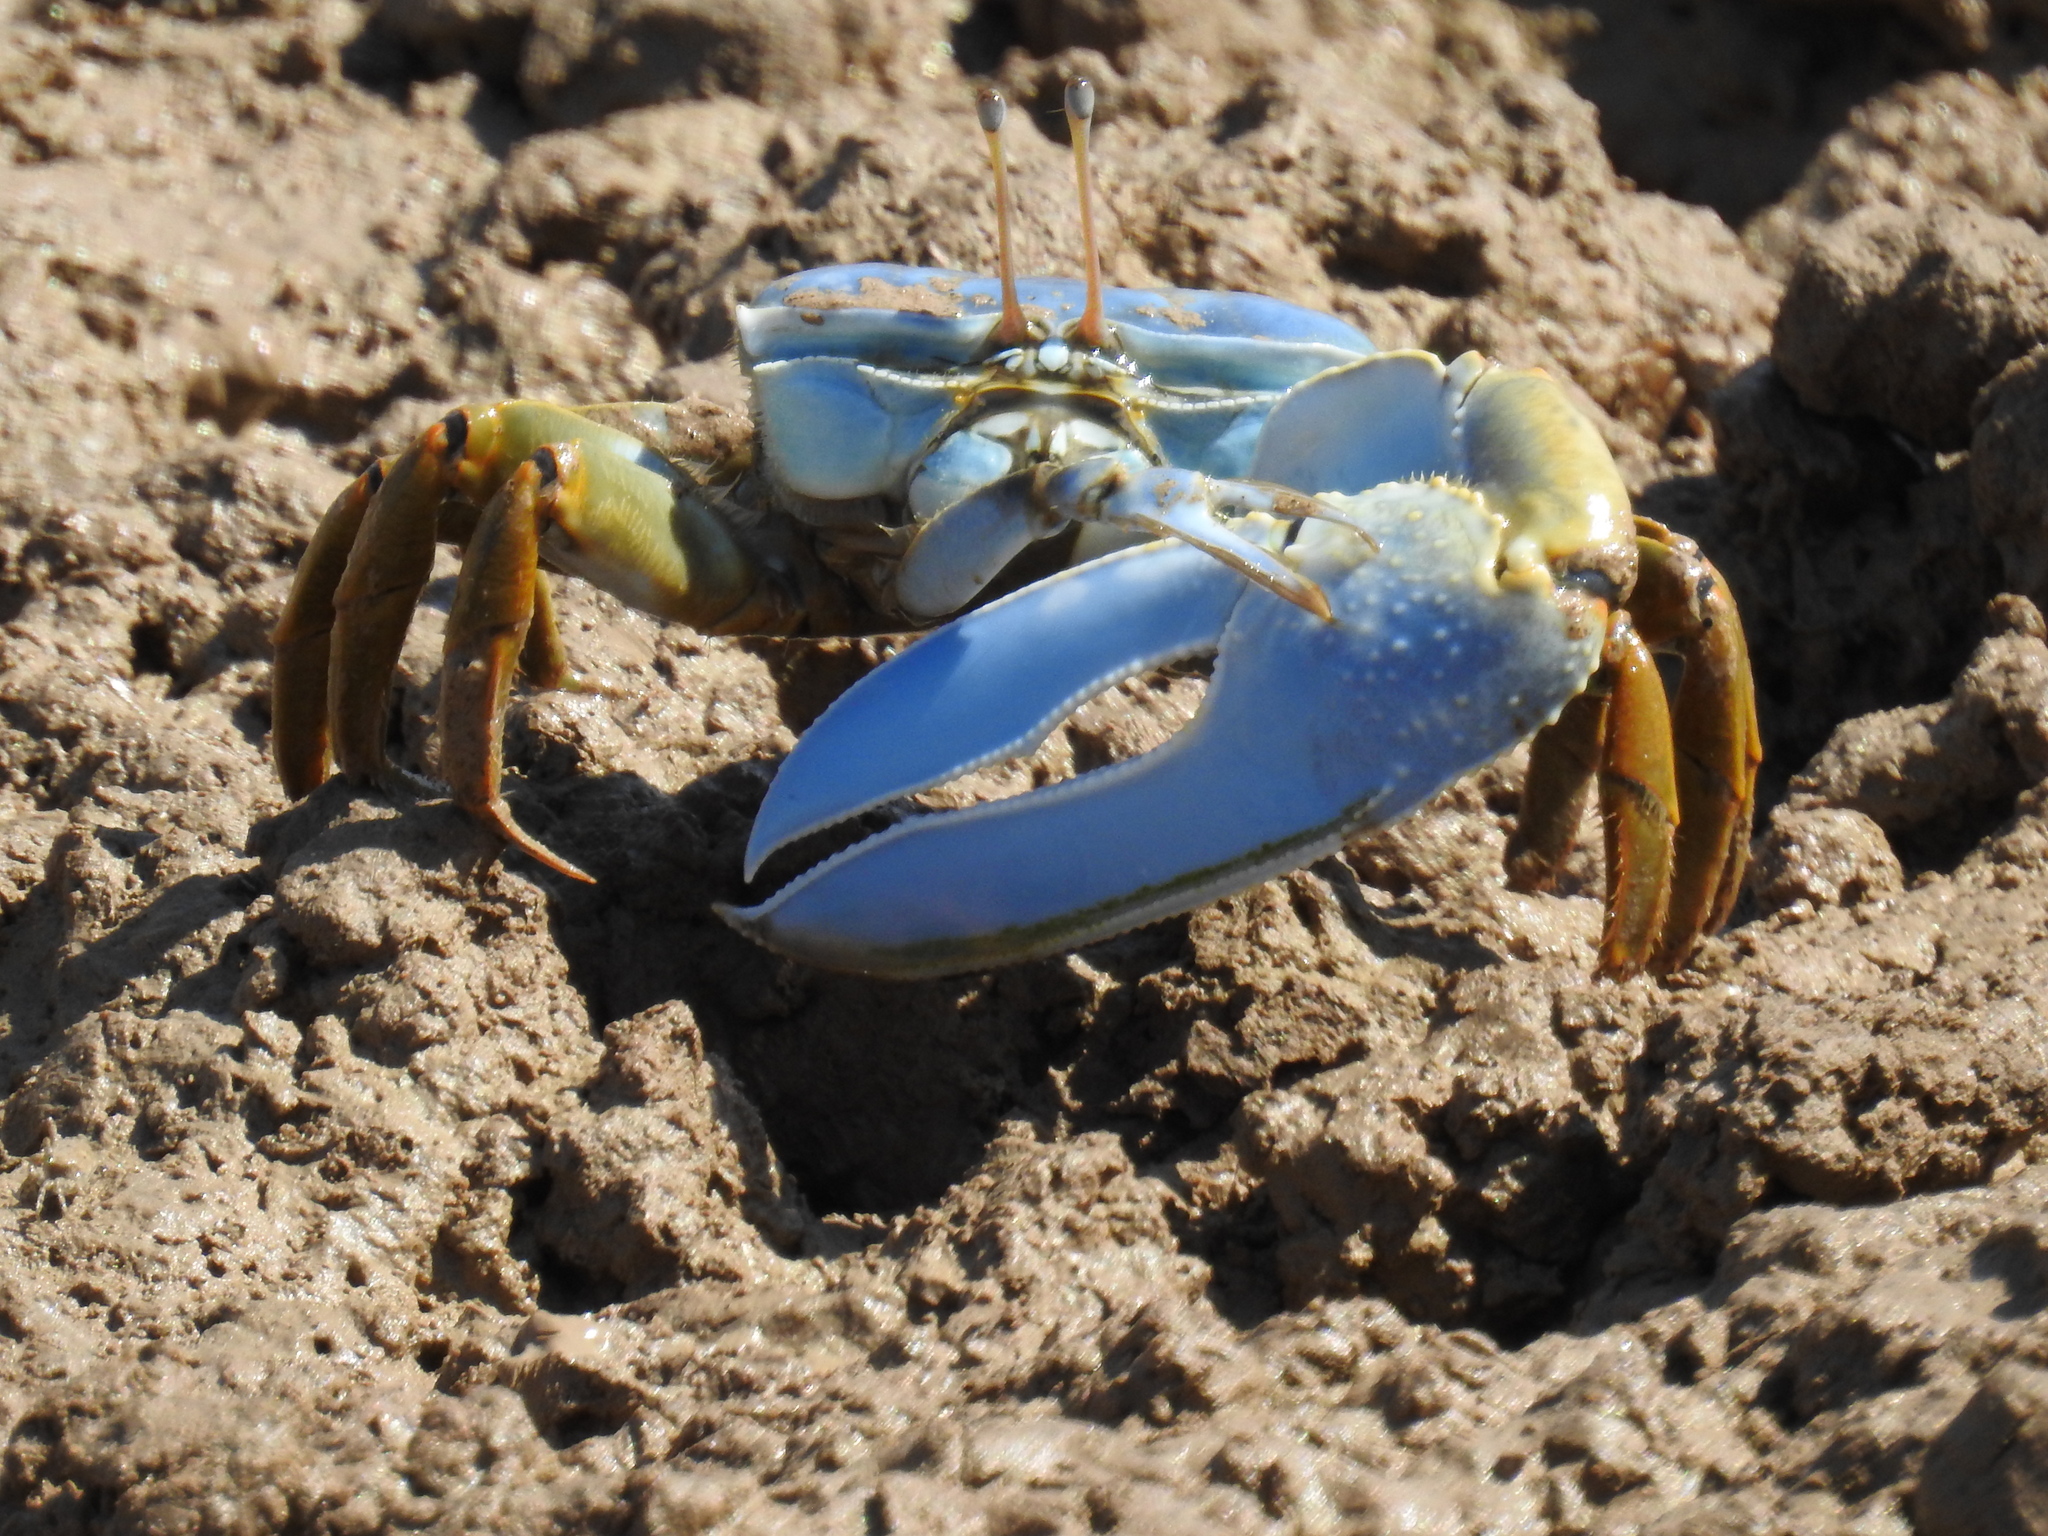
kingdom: Animalia
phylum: Arthropoda
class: Malacostraca
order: Decapoda
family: Ocypodidae
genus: Uca
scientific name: Uca monilifera
